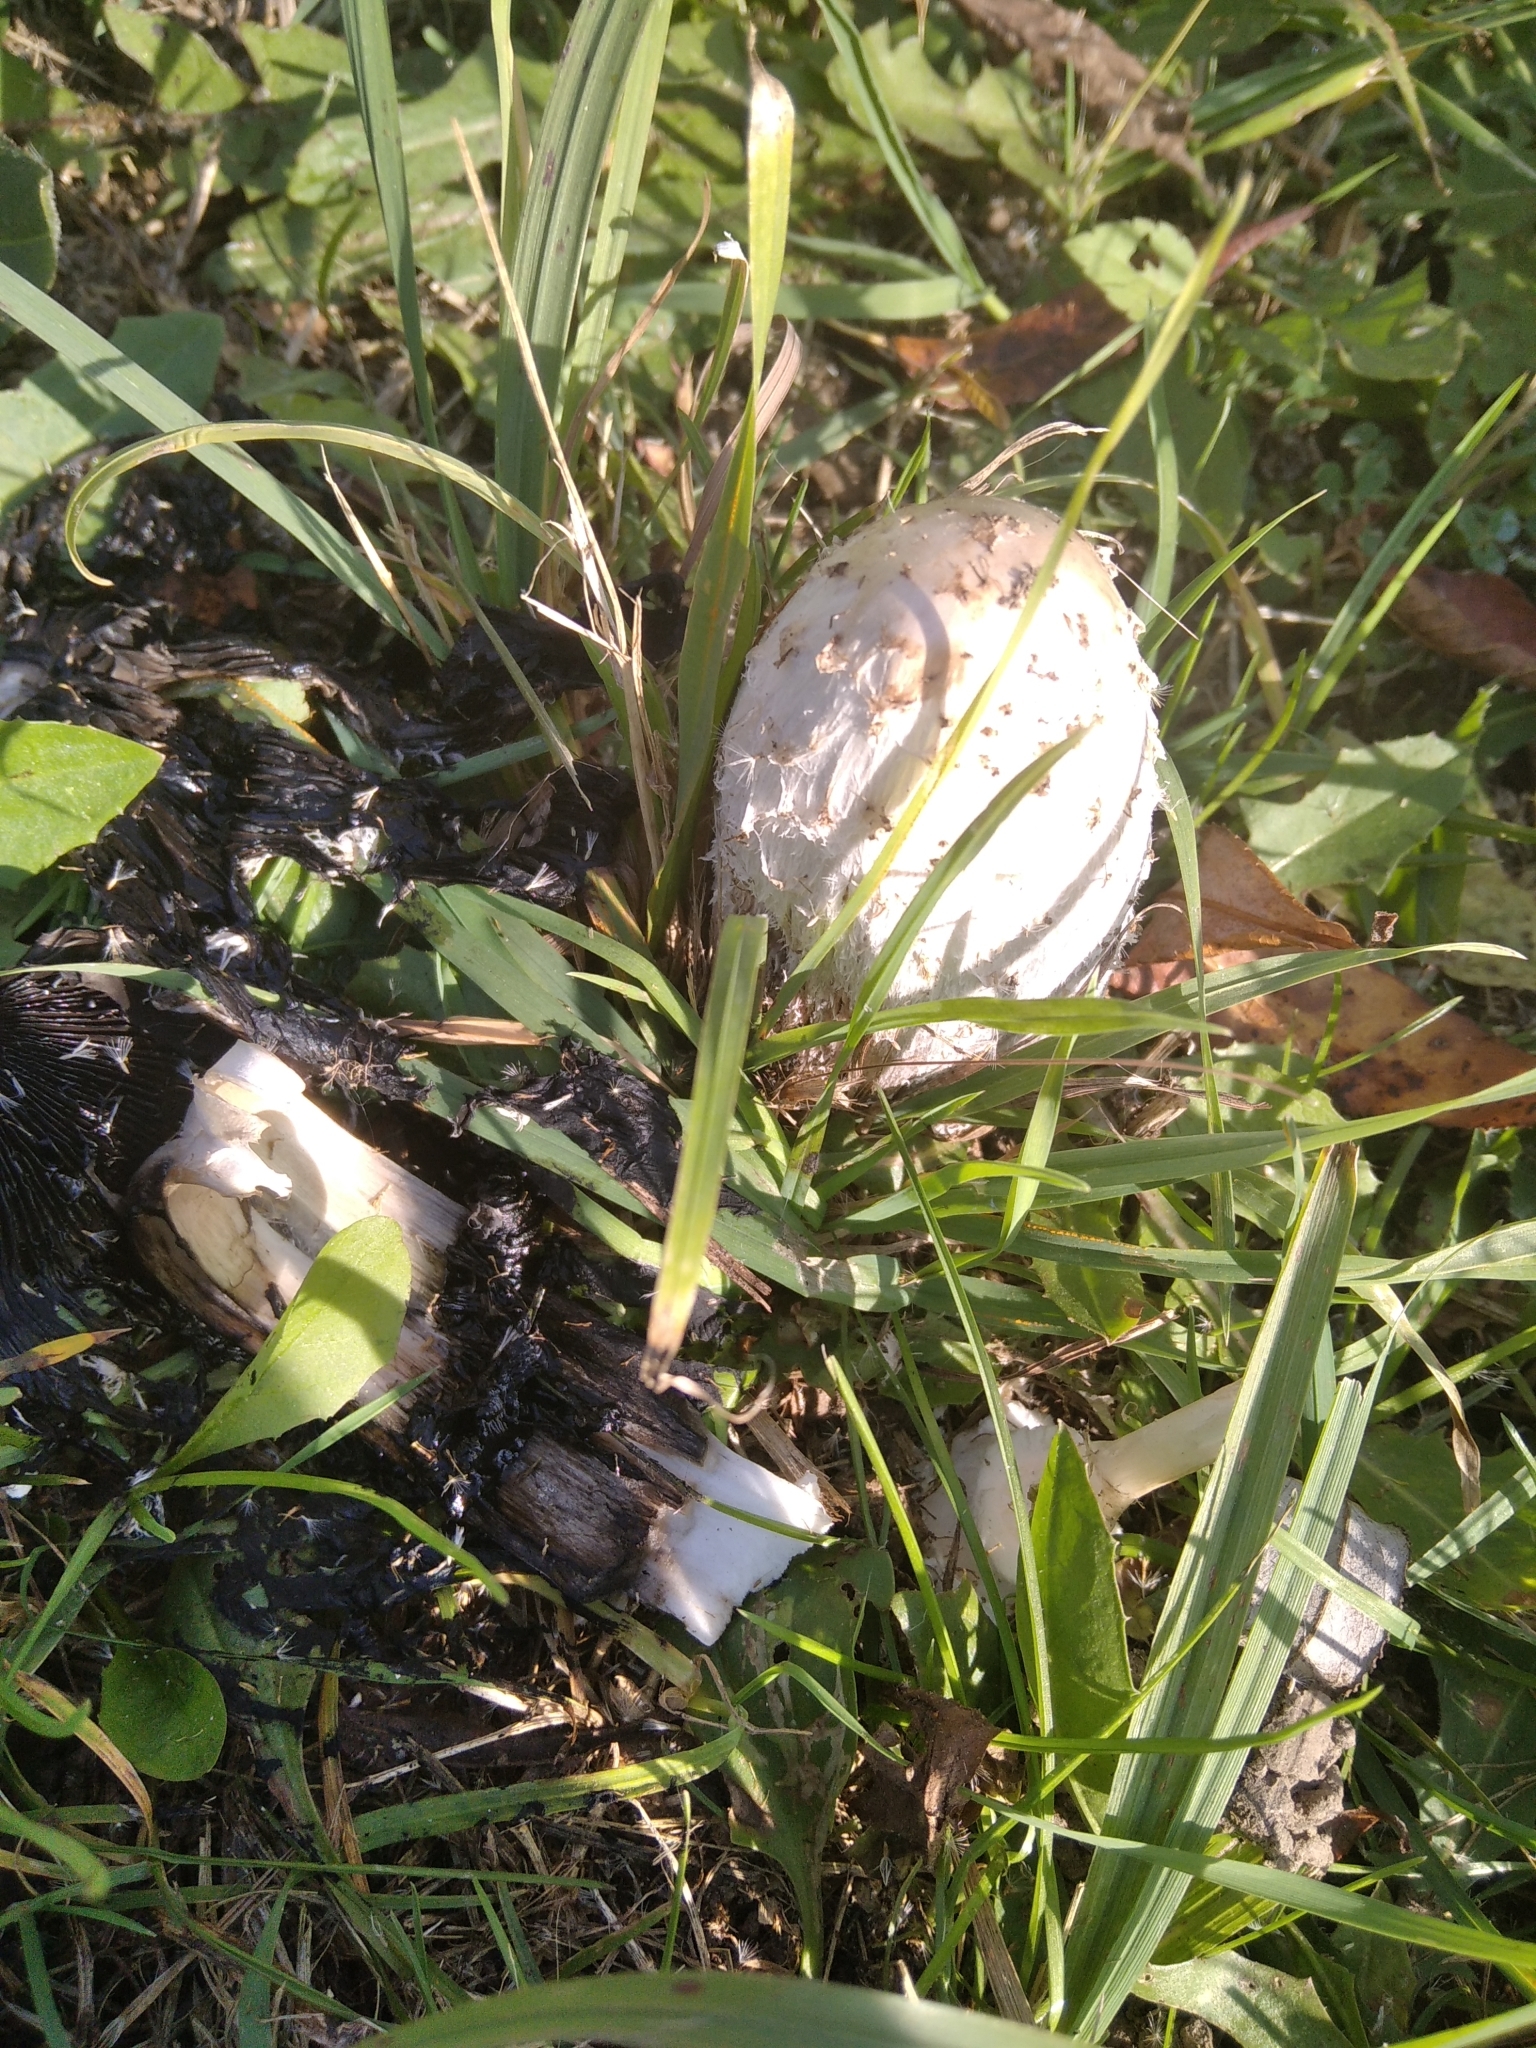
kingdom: Fungi
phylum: Basidiomycota
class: Agaricomycetes
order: Agaricales
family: Agaricaceae
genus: Coprinus
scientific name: Coprinus comatus
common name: Lawyer's wig
